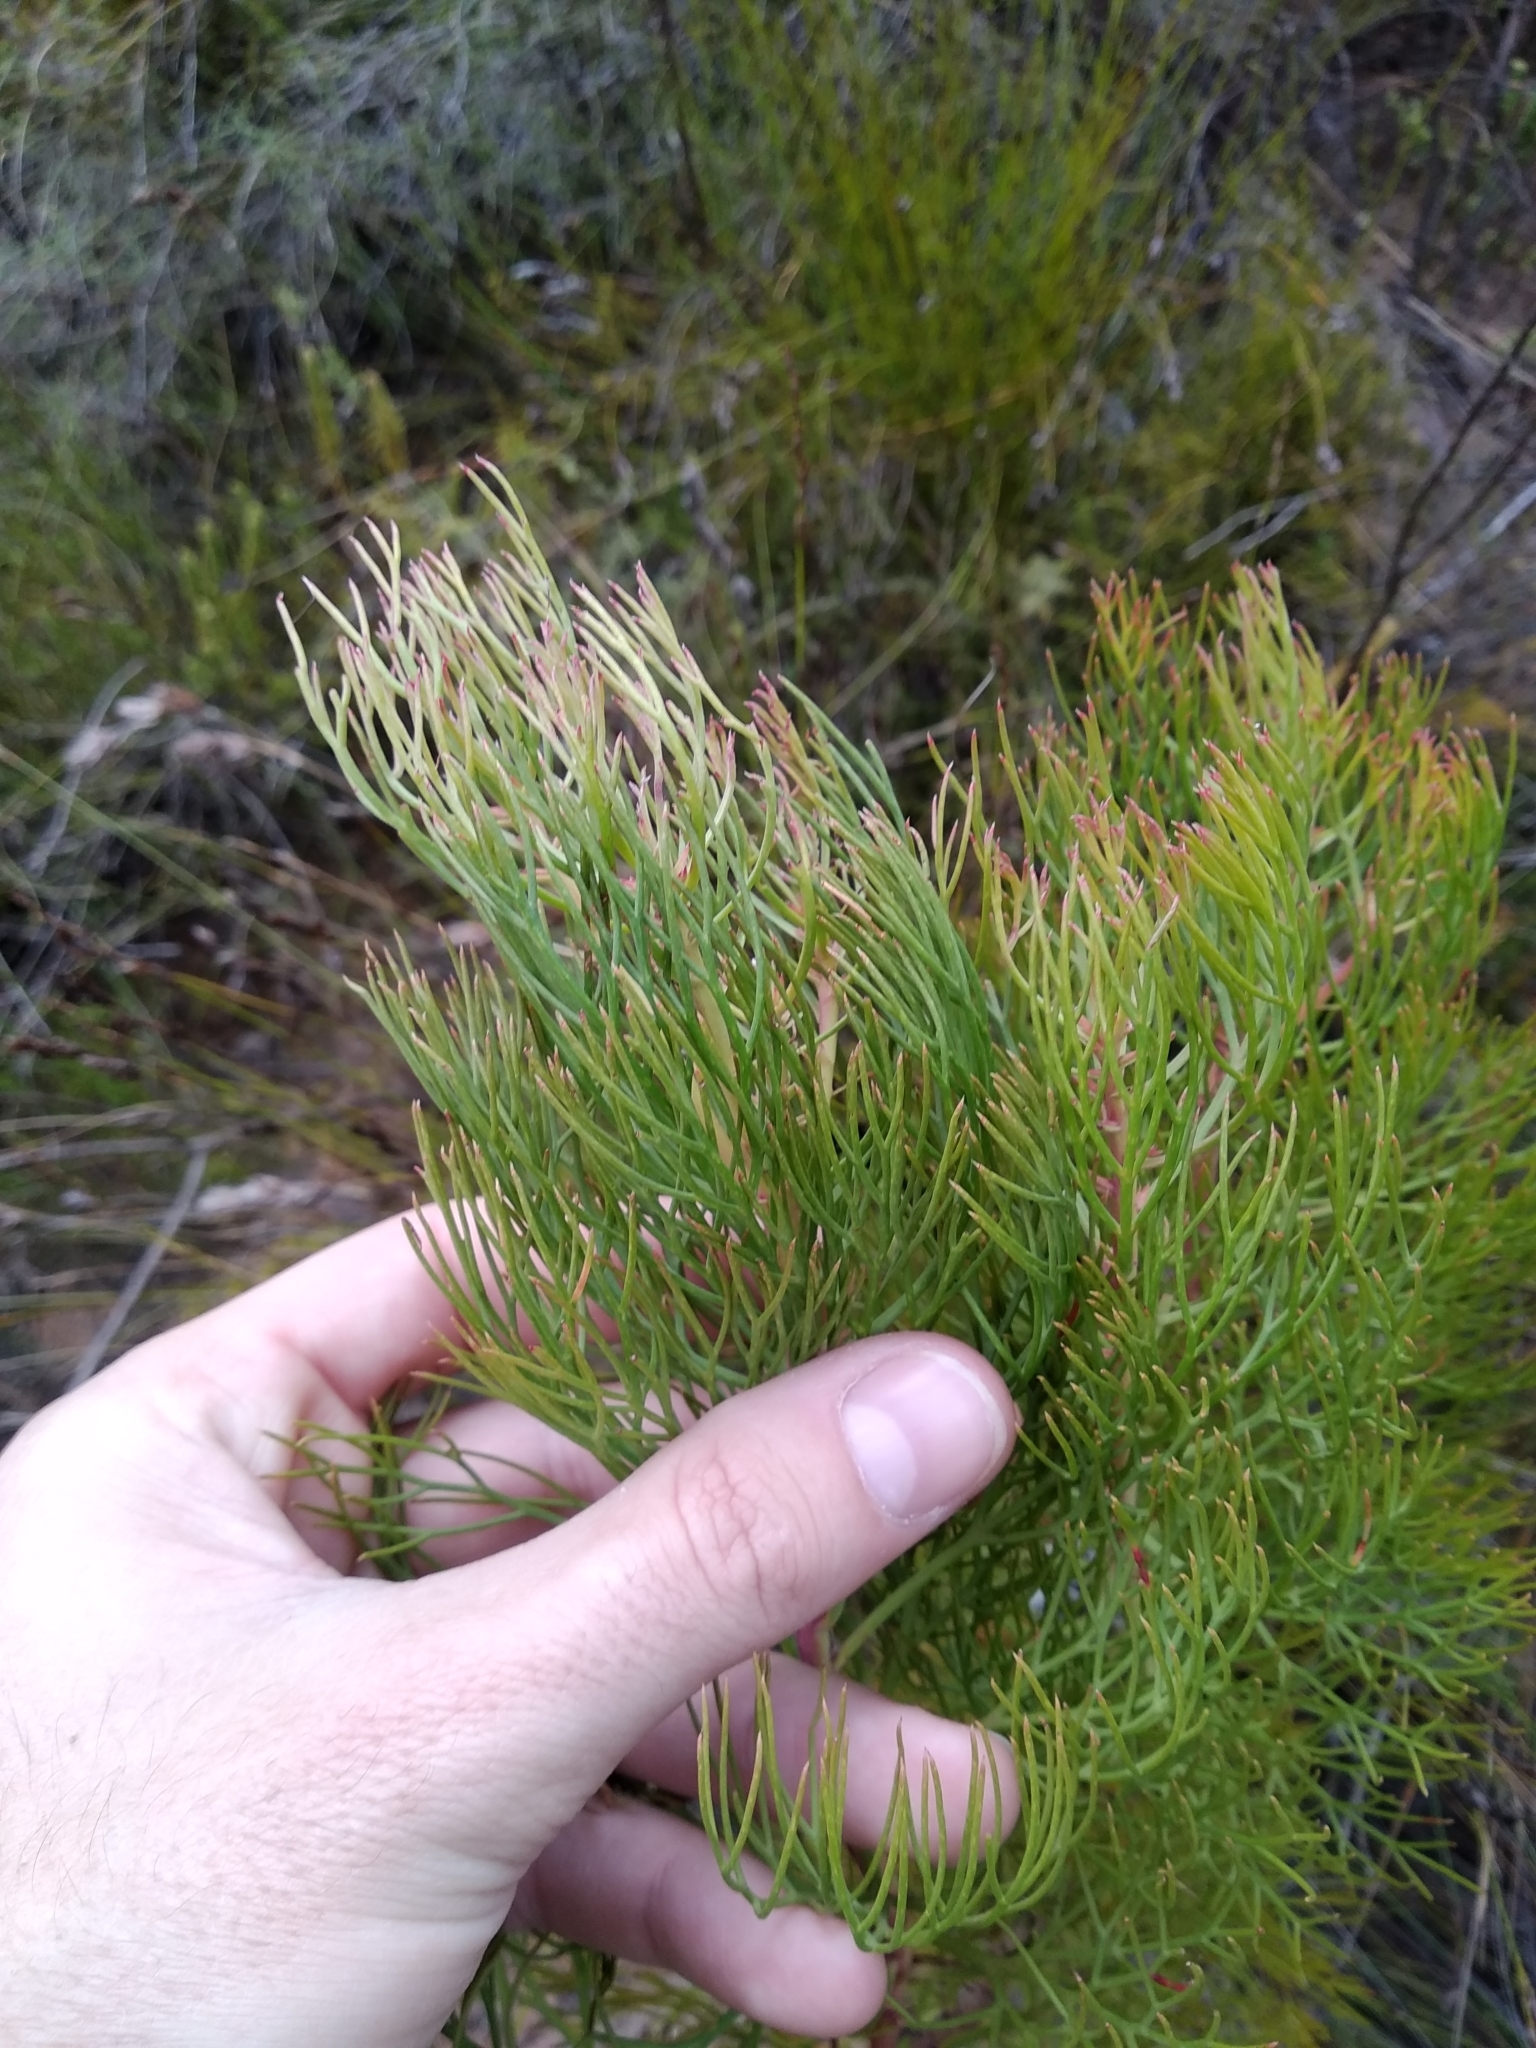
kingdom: Plantae
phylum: Tracheophyta
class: Magnoliopsida
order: Proteales
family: Proteaceae
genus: Serruria
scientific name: Serruria rosea
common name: Rose spiderhead
